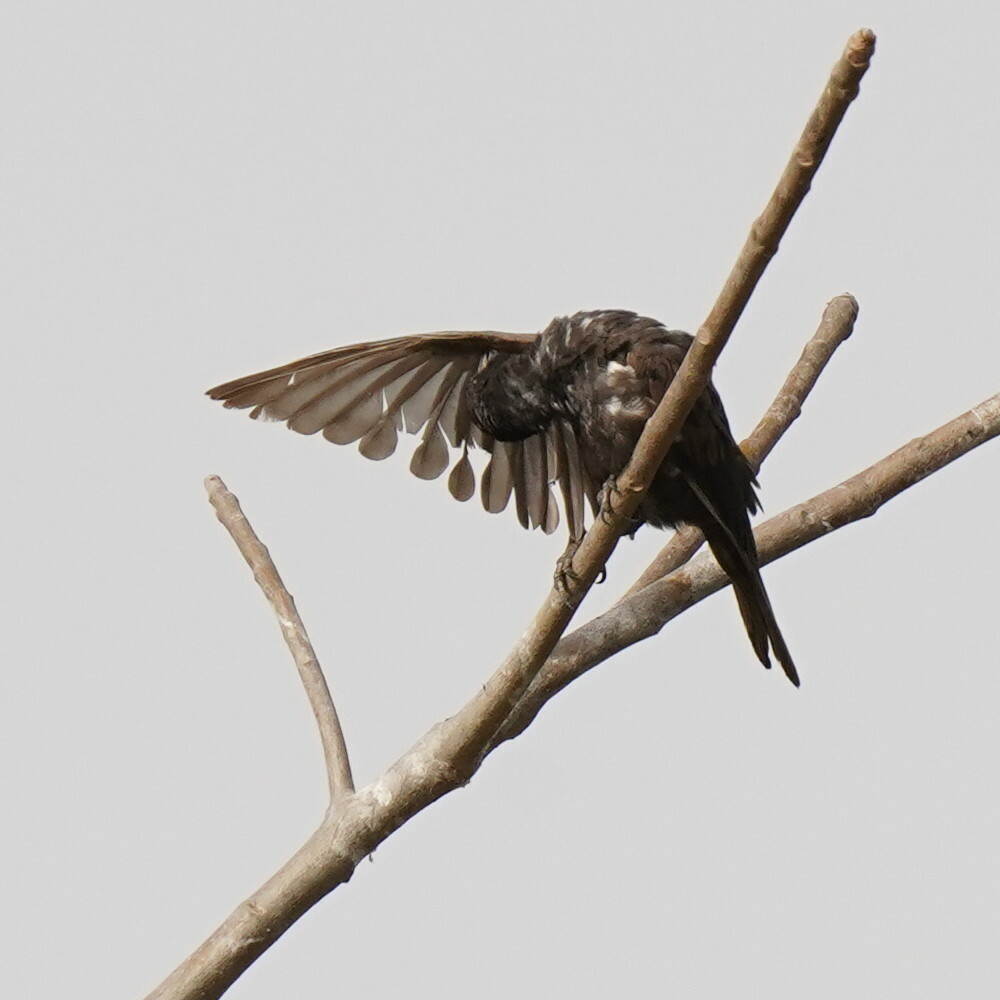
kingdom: Animalia
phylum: Chordata
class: Aves
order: Passeriformes
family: Ploceidae
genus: Bubalornis
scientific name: Bubalornis albirostris
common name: White-billed buffalo weaver
